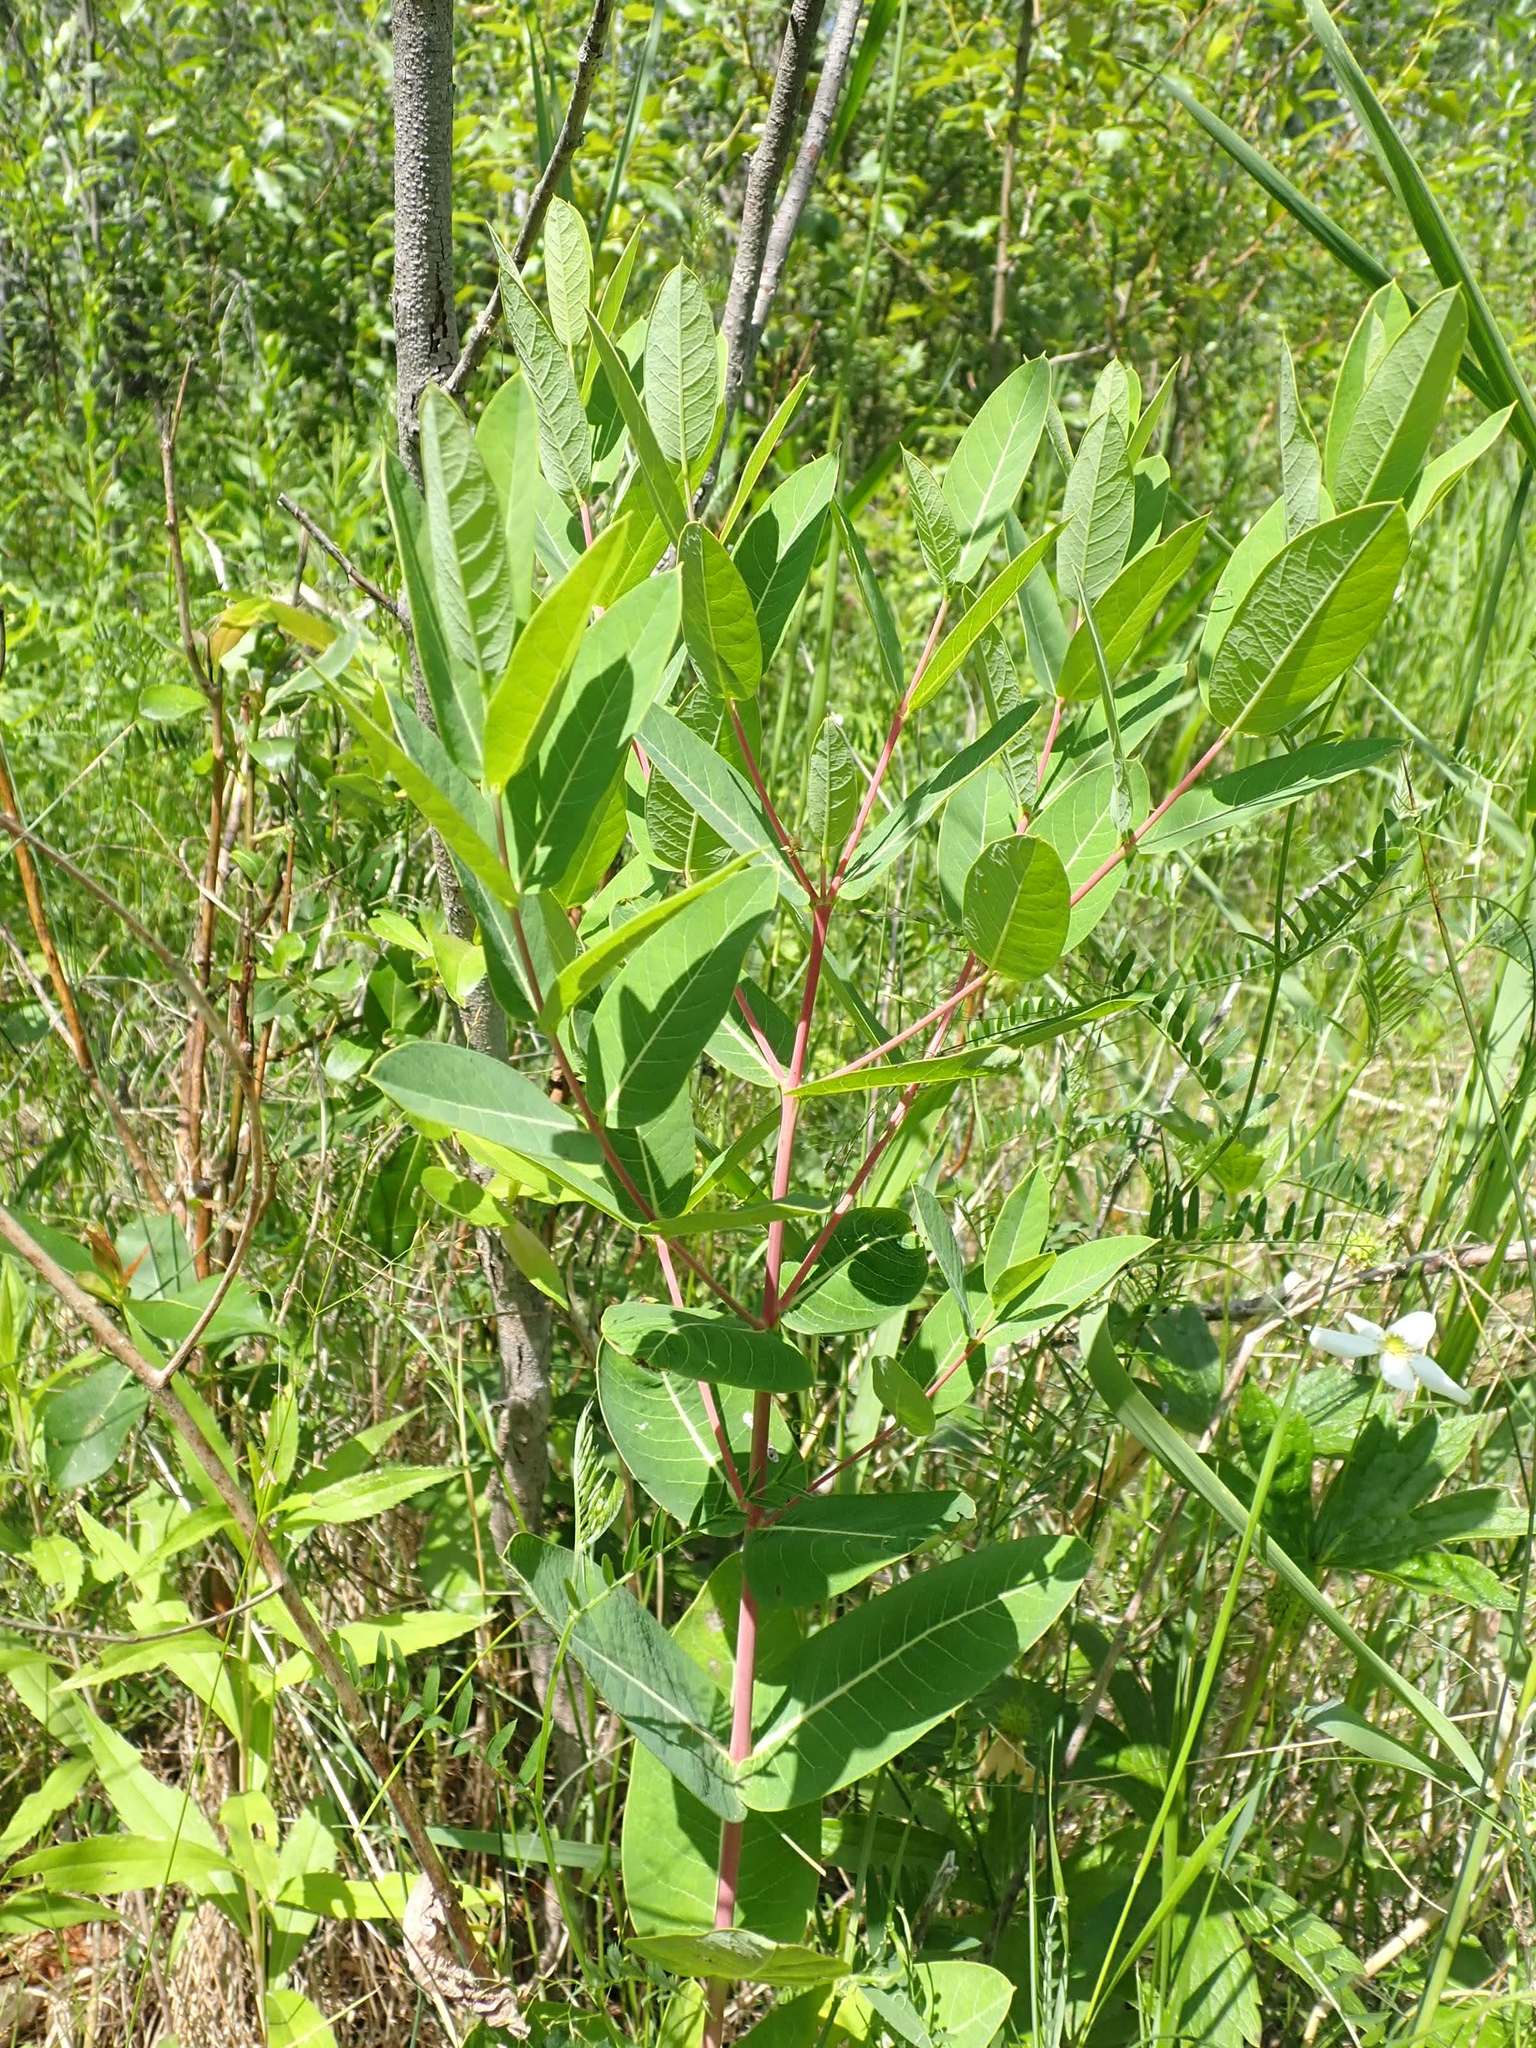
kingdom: Plantae
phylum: Tracheophyta
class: Magnoliopsida
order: Gentianales
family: Apocynaceae
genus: Apocynum
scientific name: Apocynum cannabinum
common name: Hemp dogbane
